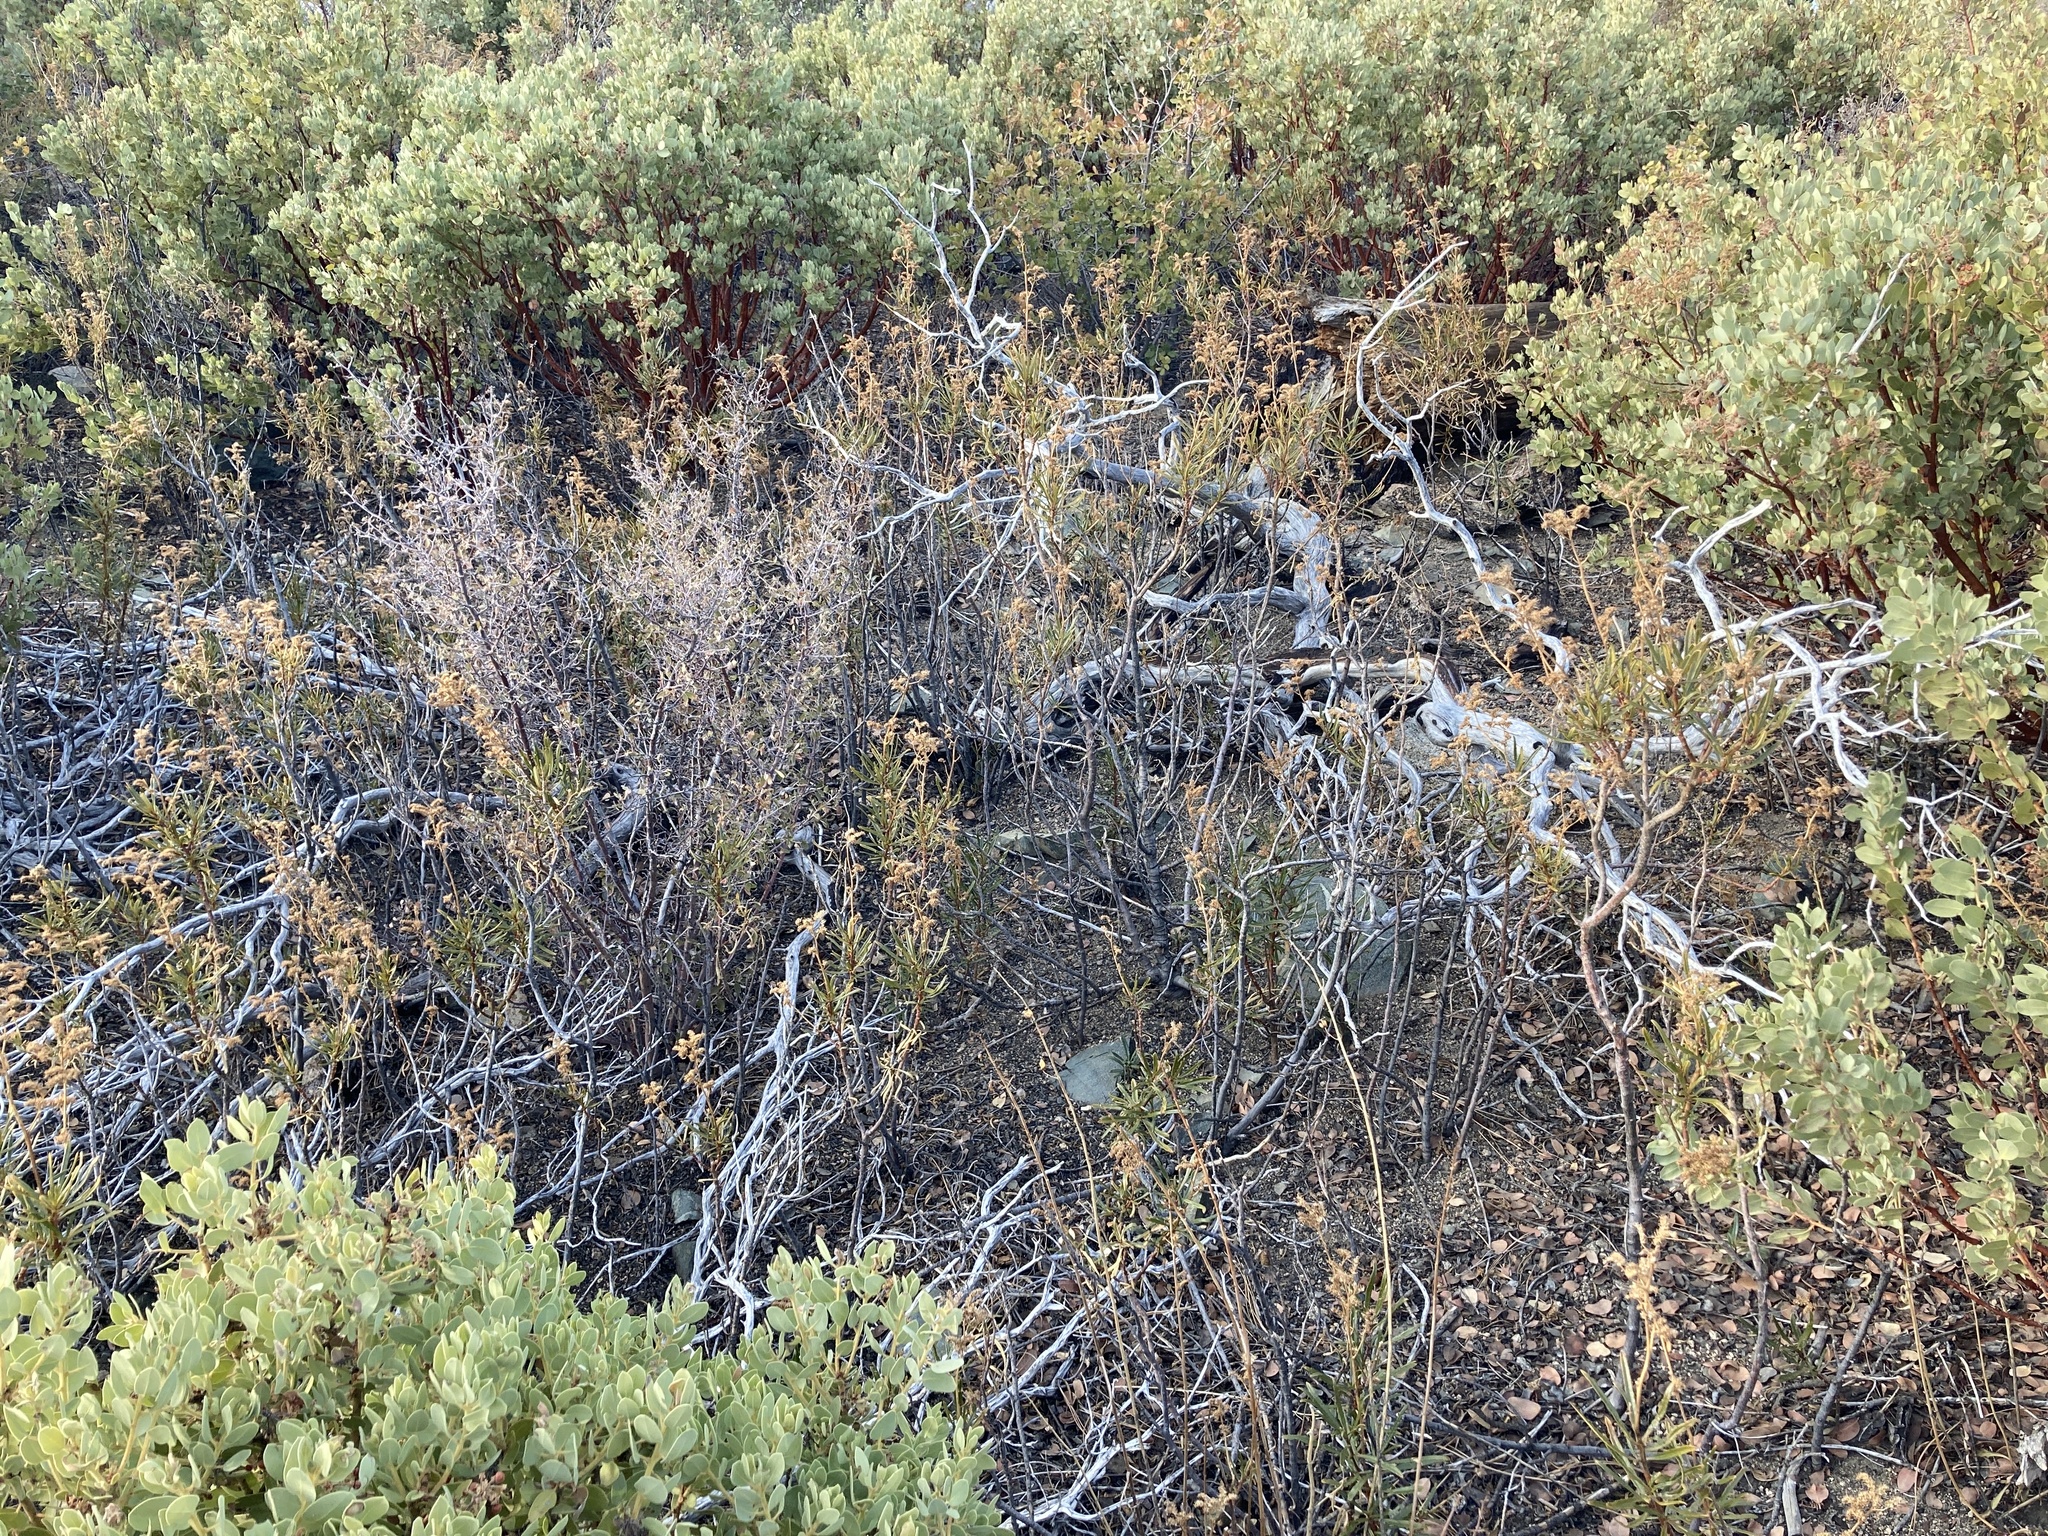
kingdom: Plantae
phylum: Tracheophyta
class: Magnoliopsida
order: Boraginales
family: Namaceae
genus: Eriodictyon
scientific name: Eriodictyon angustifolium
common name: Narrow-leaf yerba santa
